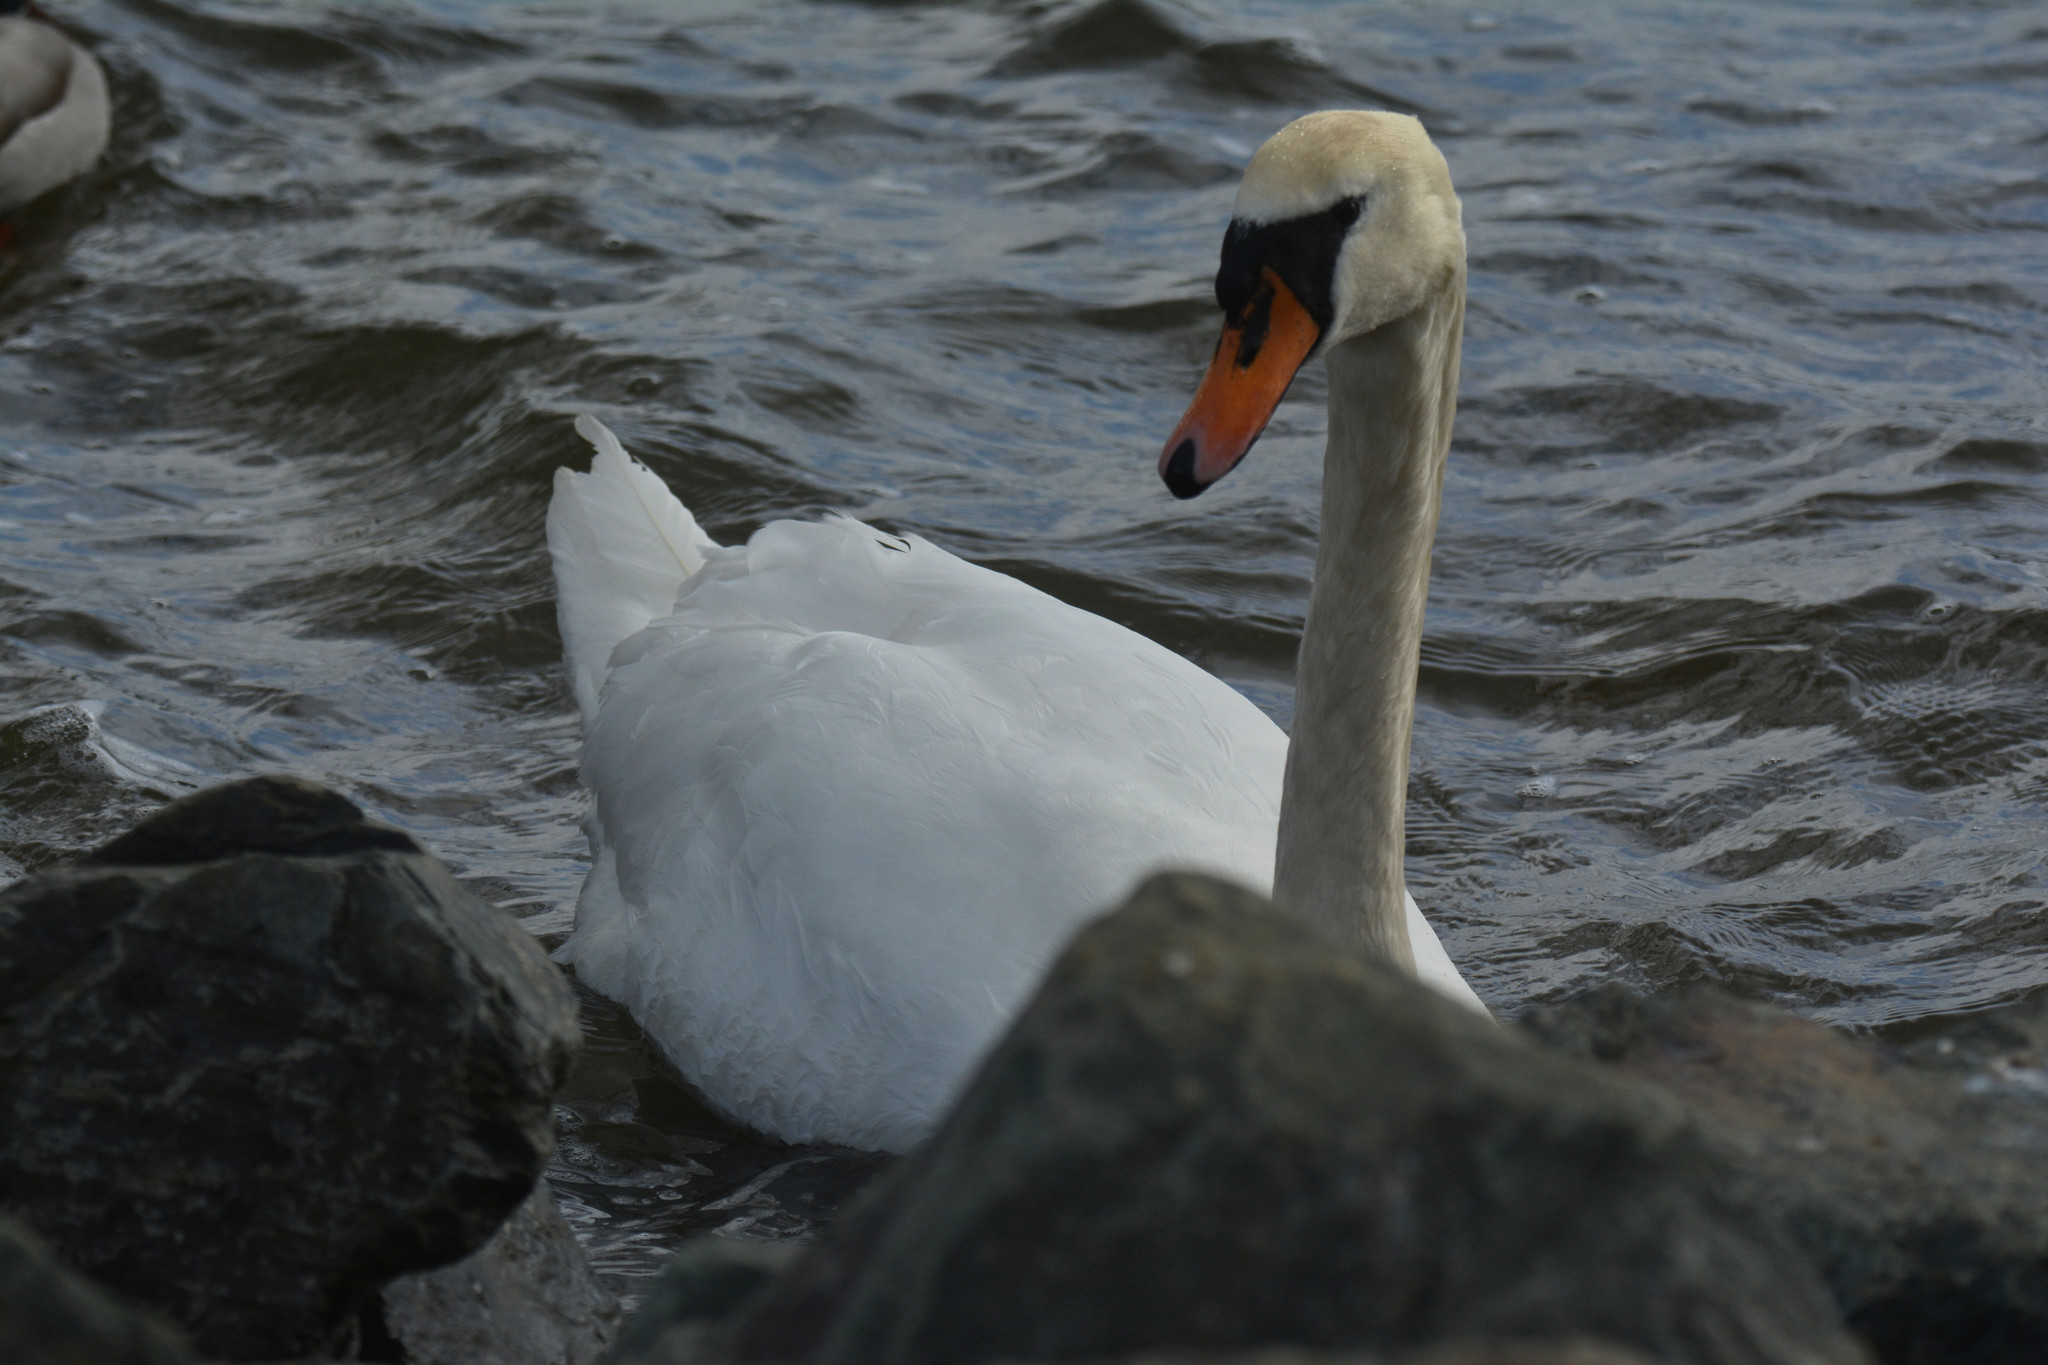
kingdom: Animalia
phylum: Chordata
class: Aves
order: Anseriformes
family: Anatidae
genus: Cygnus
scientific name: Cygnus olor
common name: Mute swan
